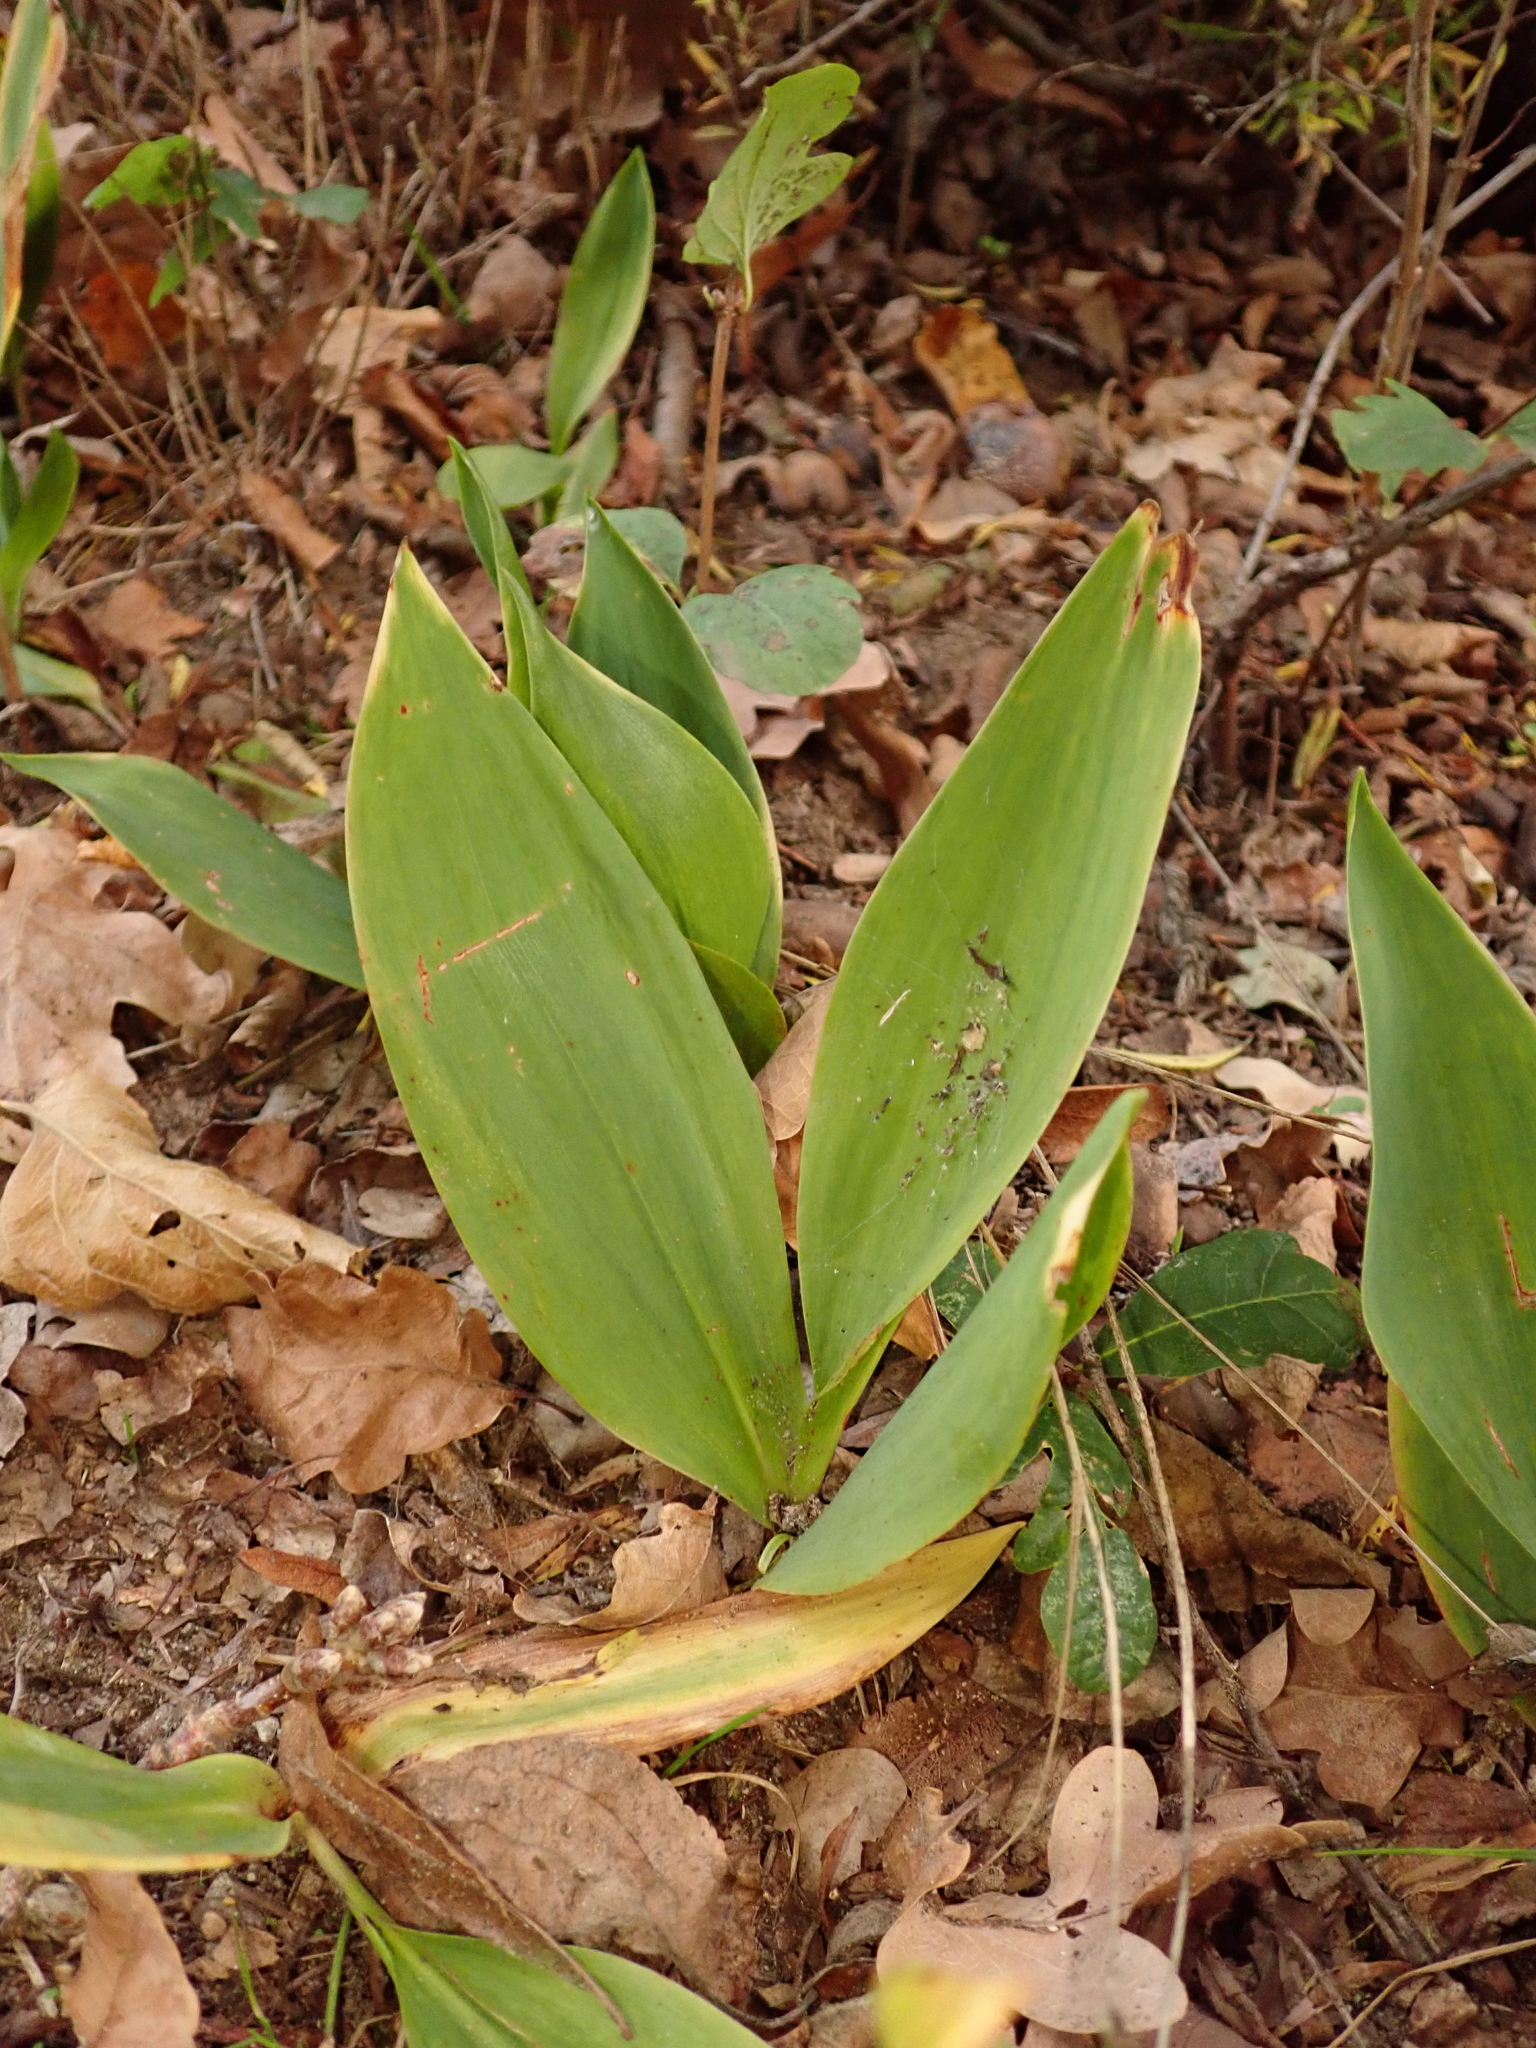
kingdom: Plantae
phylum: Tracheophyta
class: Liliopsida
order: Asparagales
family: Asparagaceae
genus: Convallaria
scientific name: Convallaria majalis
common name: Lily-of-the-valley
